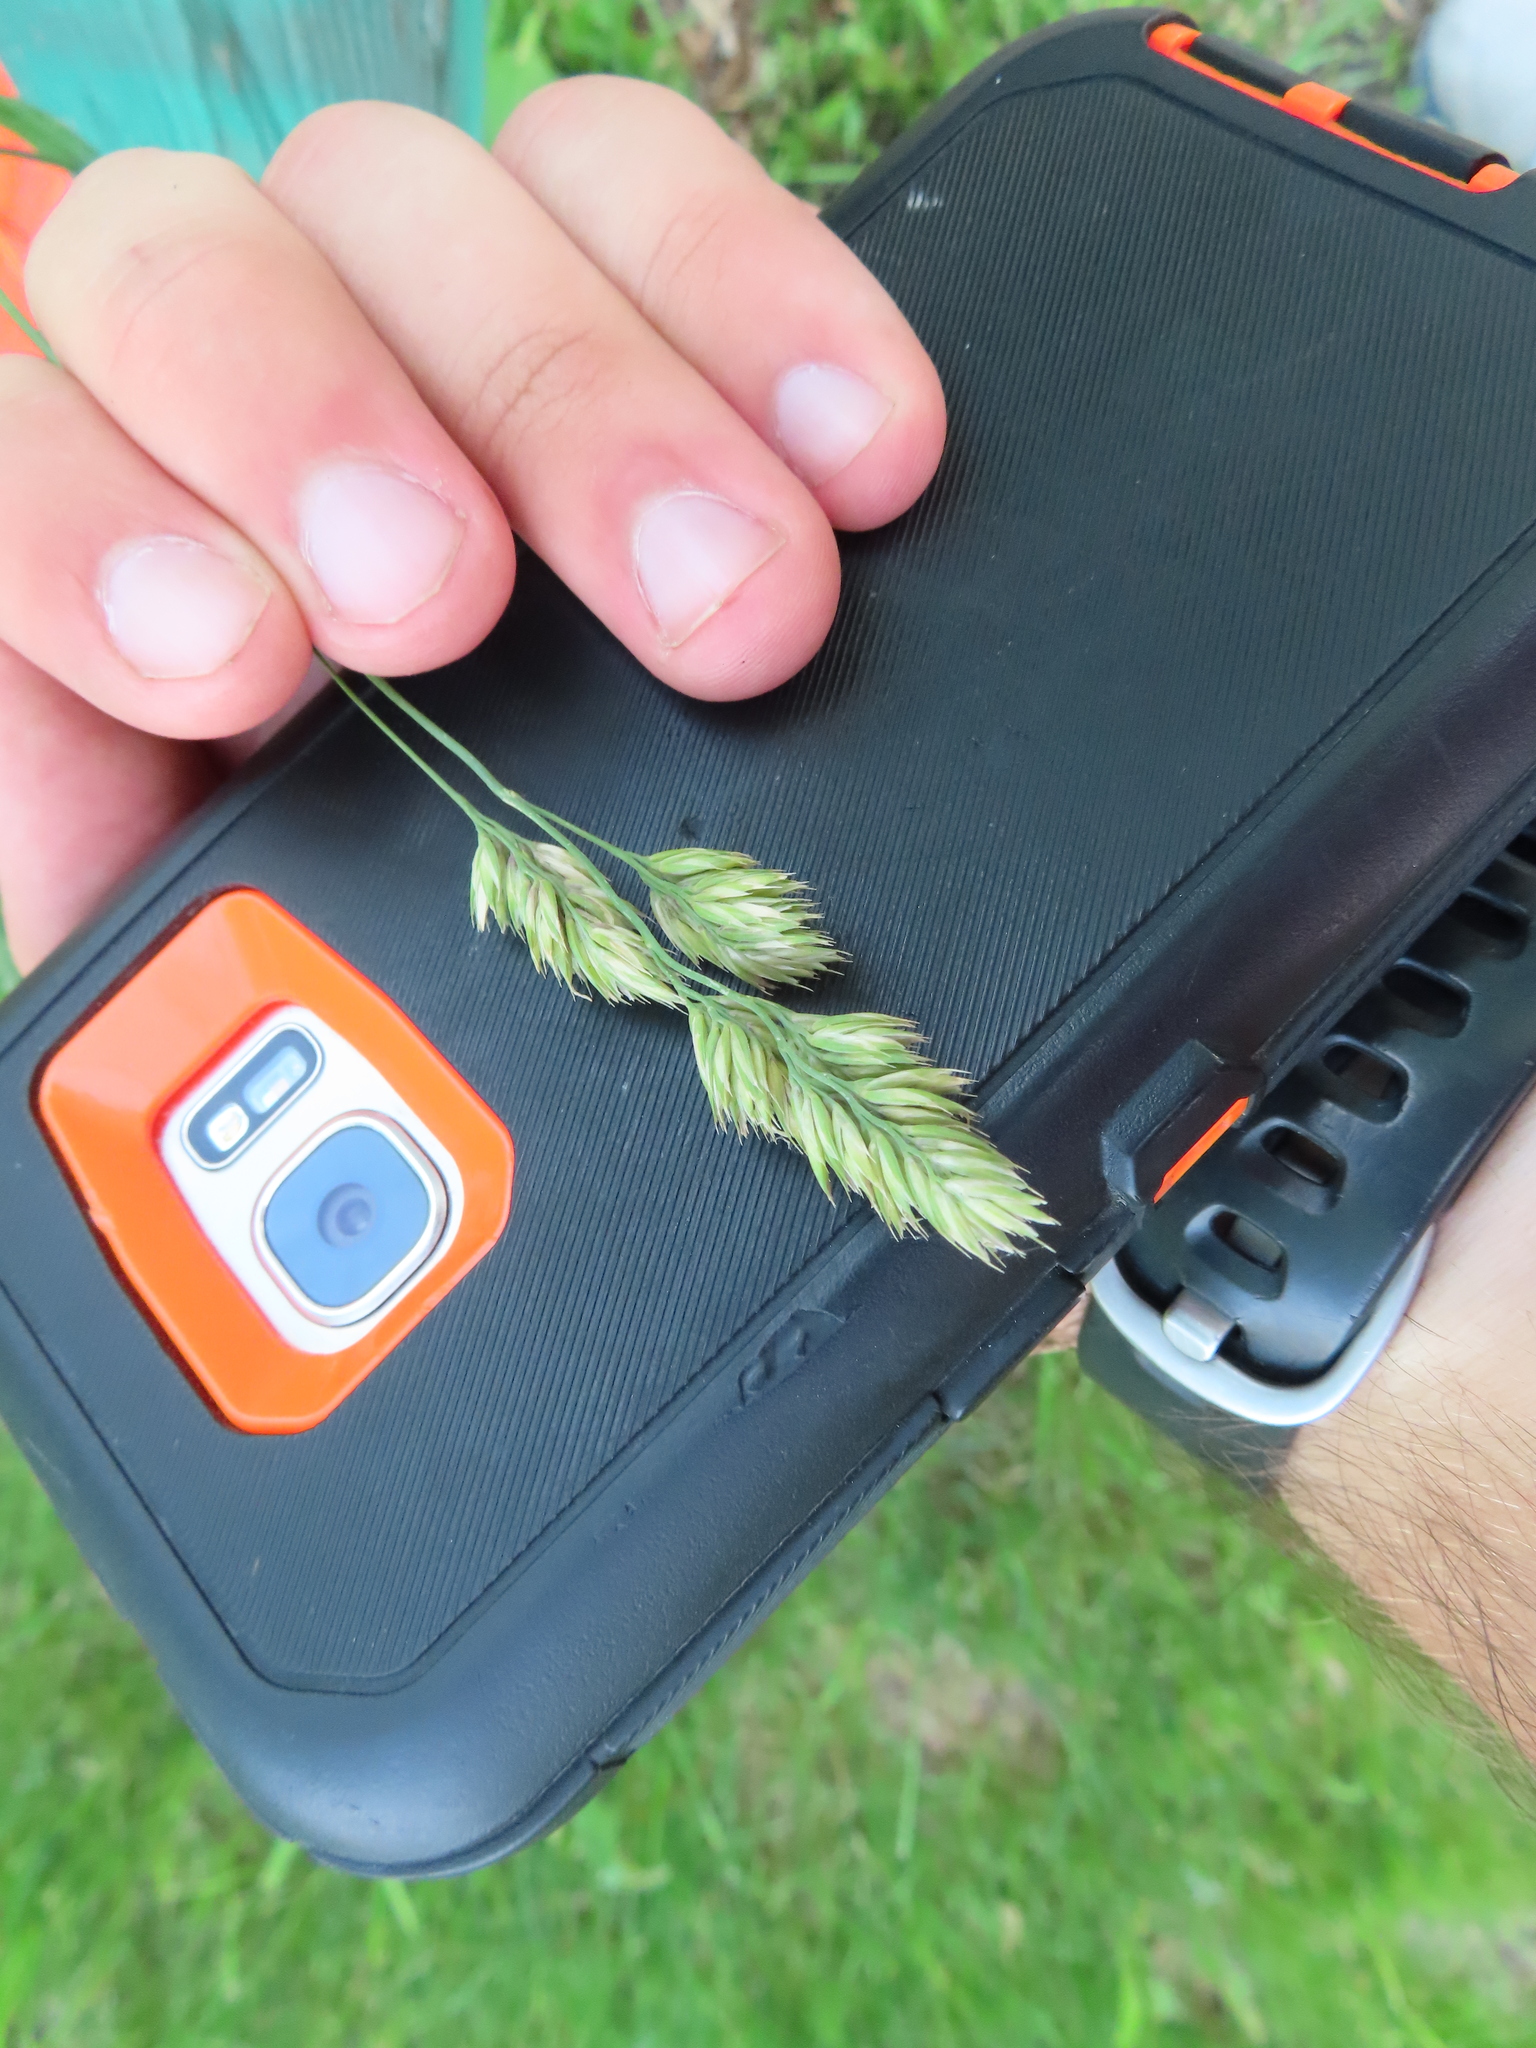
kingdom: Plantae
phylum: Tracheophyta
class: Liliopsida
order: Poales
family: Poaceae
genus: Dactylis
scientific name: Dactylis glomerata
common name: Orchardgrass
